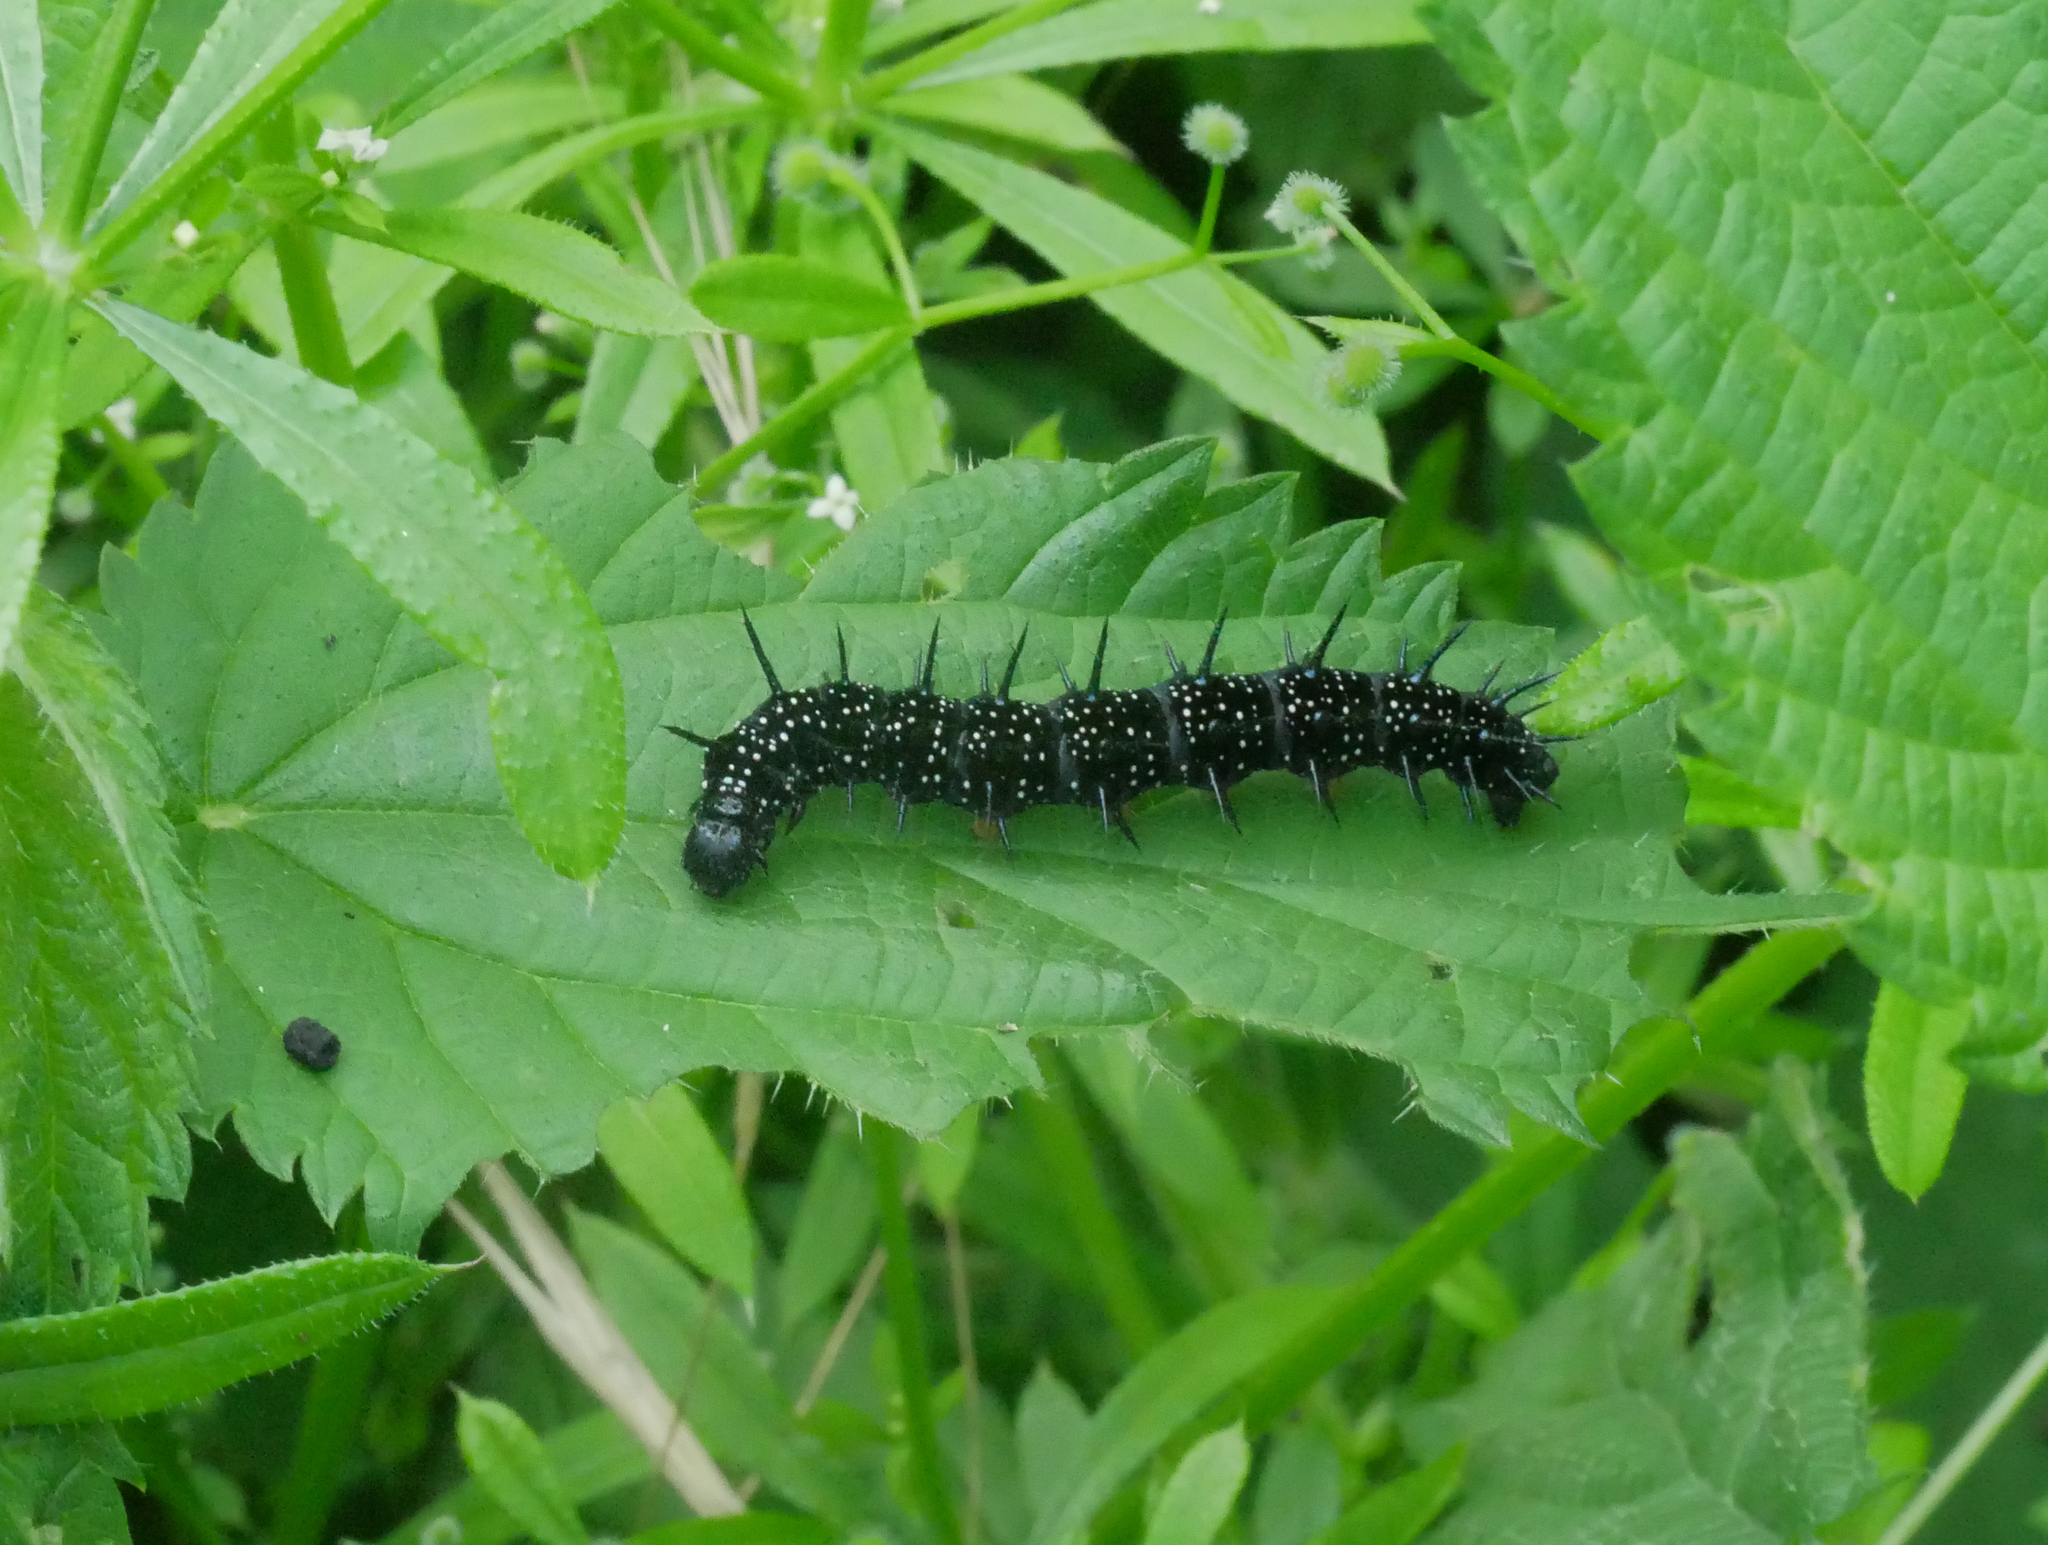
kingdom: Animalia
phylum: Arthropoda
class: Insecta
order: Lepidoptera
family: Nymphalidae
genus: Aglais
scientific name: Aglais io
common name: Peacock
